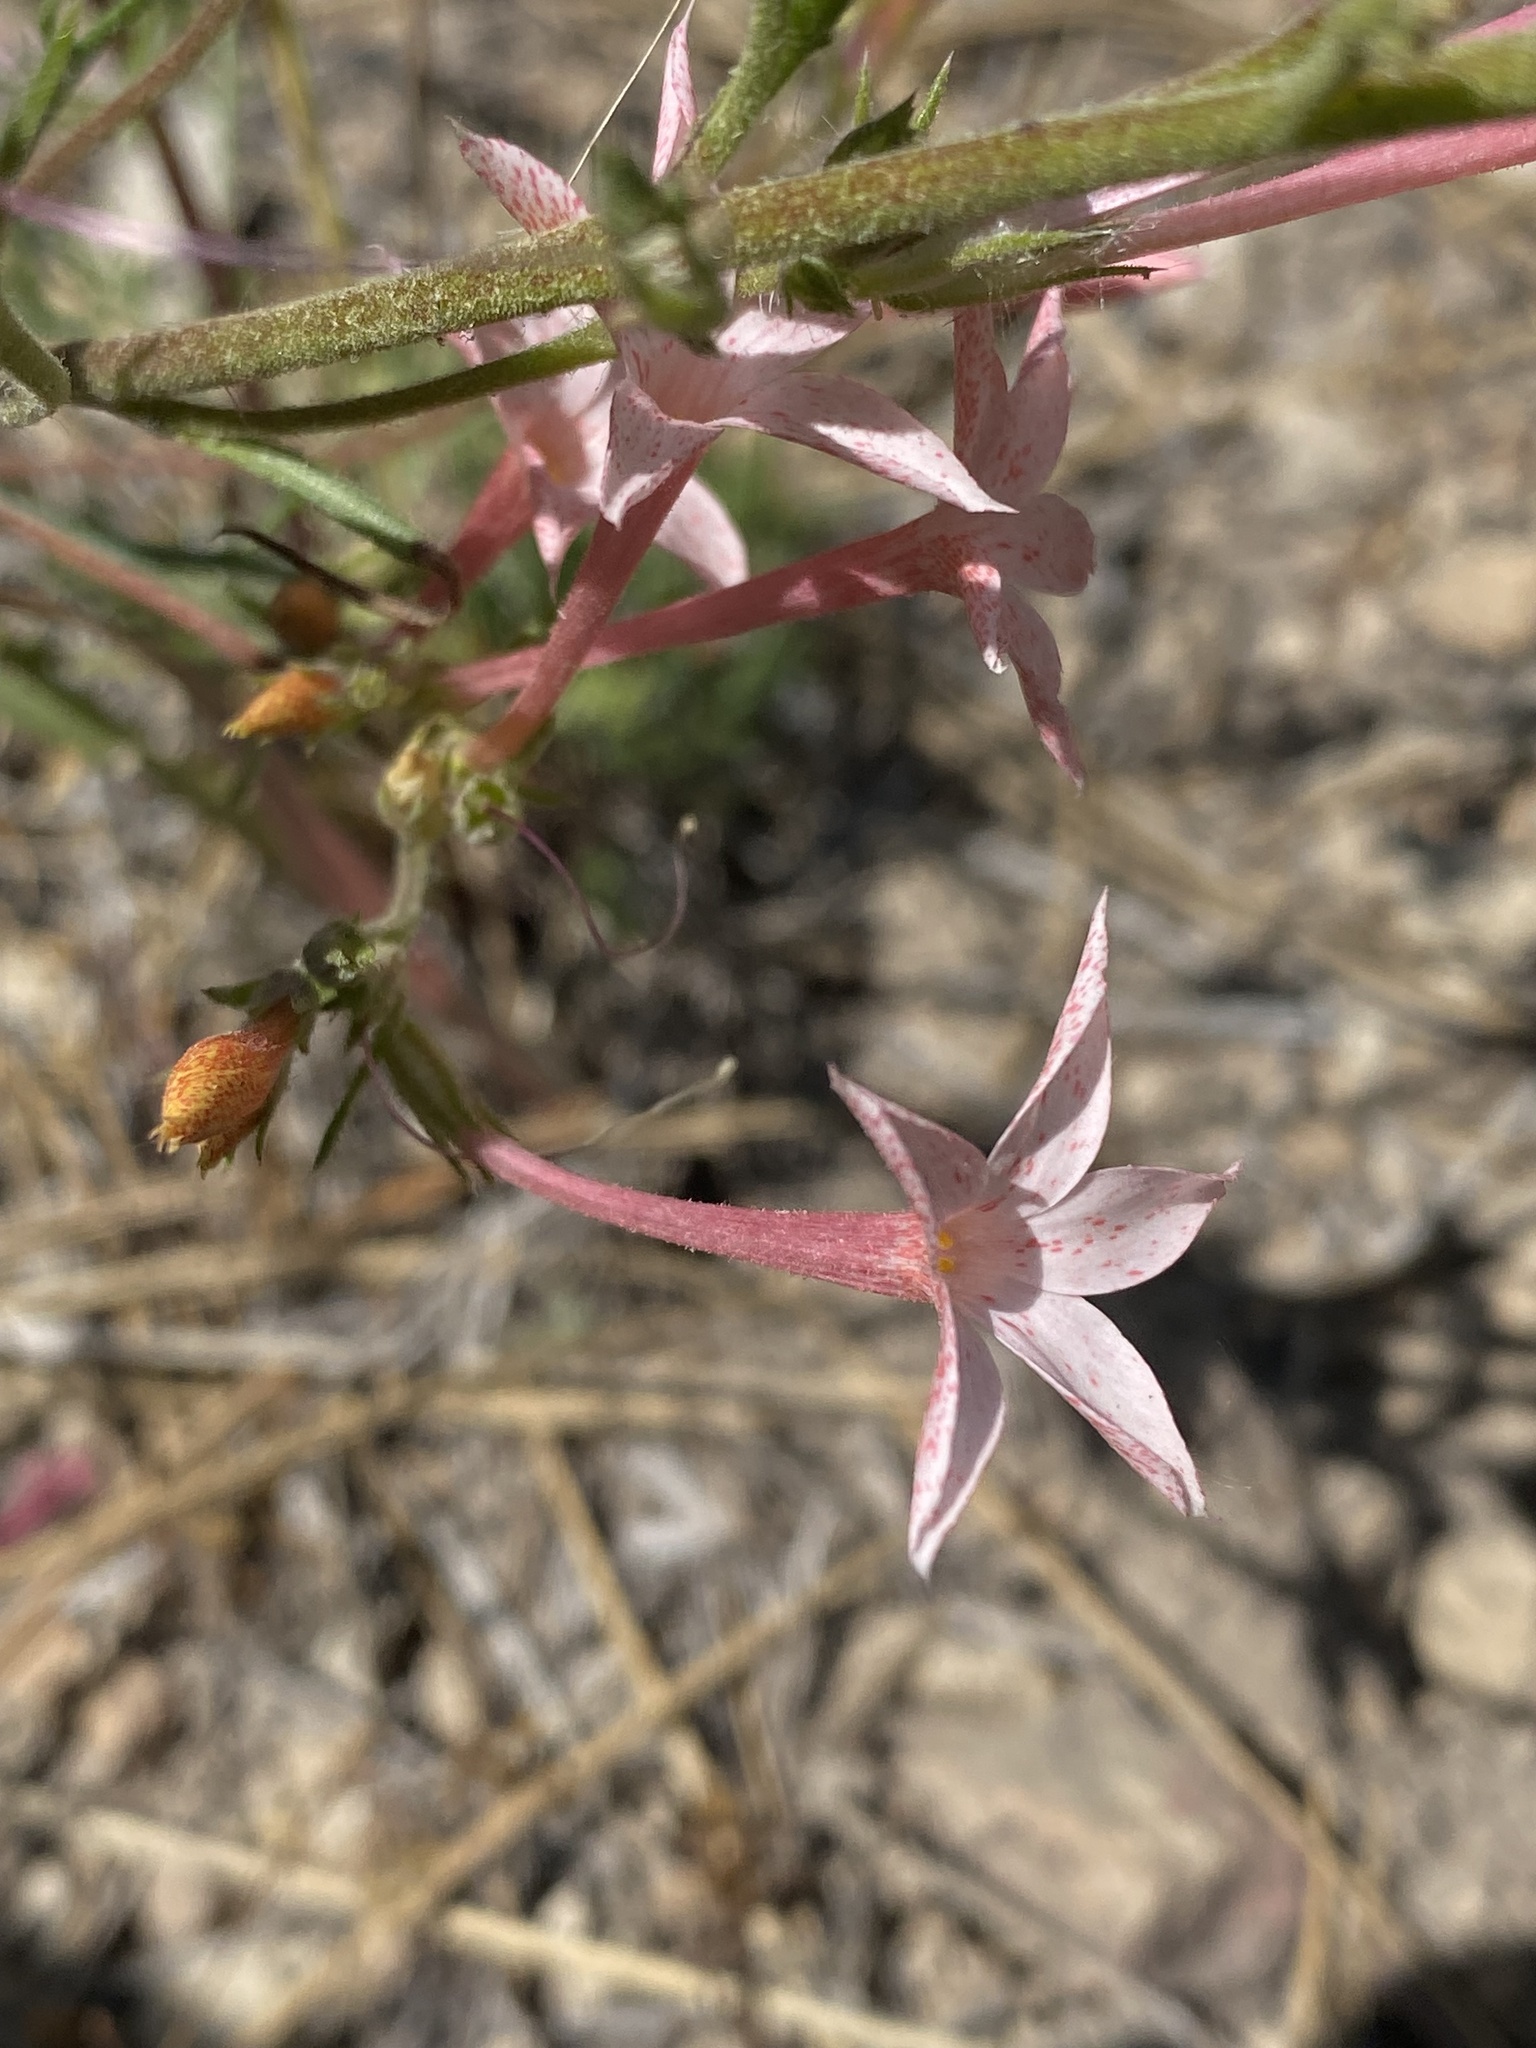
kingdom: Plantae
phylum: Tracheophyta
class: Magnoliopsida
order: Ericales
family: Polemoniaceae
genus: Ipomopsis
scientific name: Ipomopsis tenuituba
